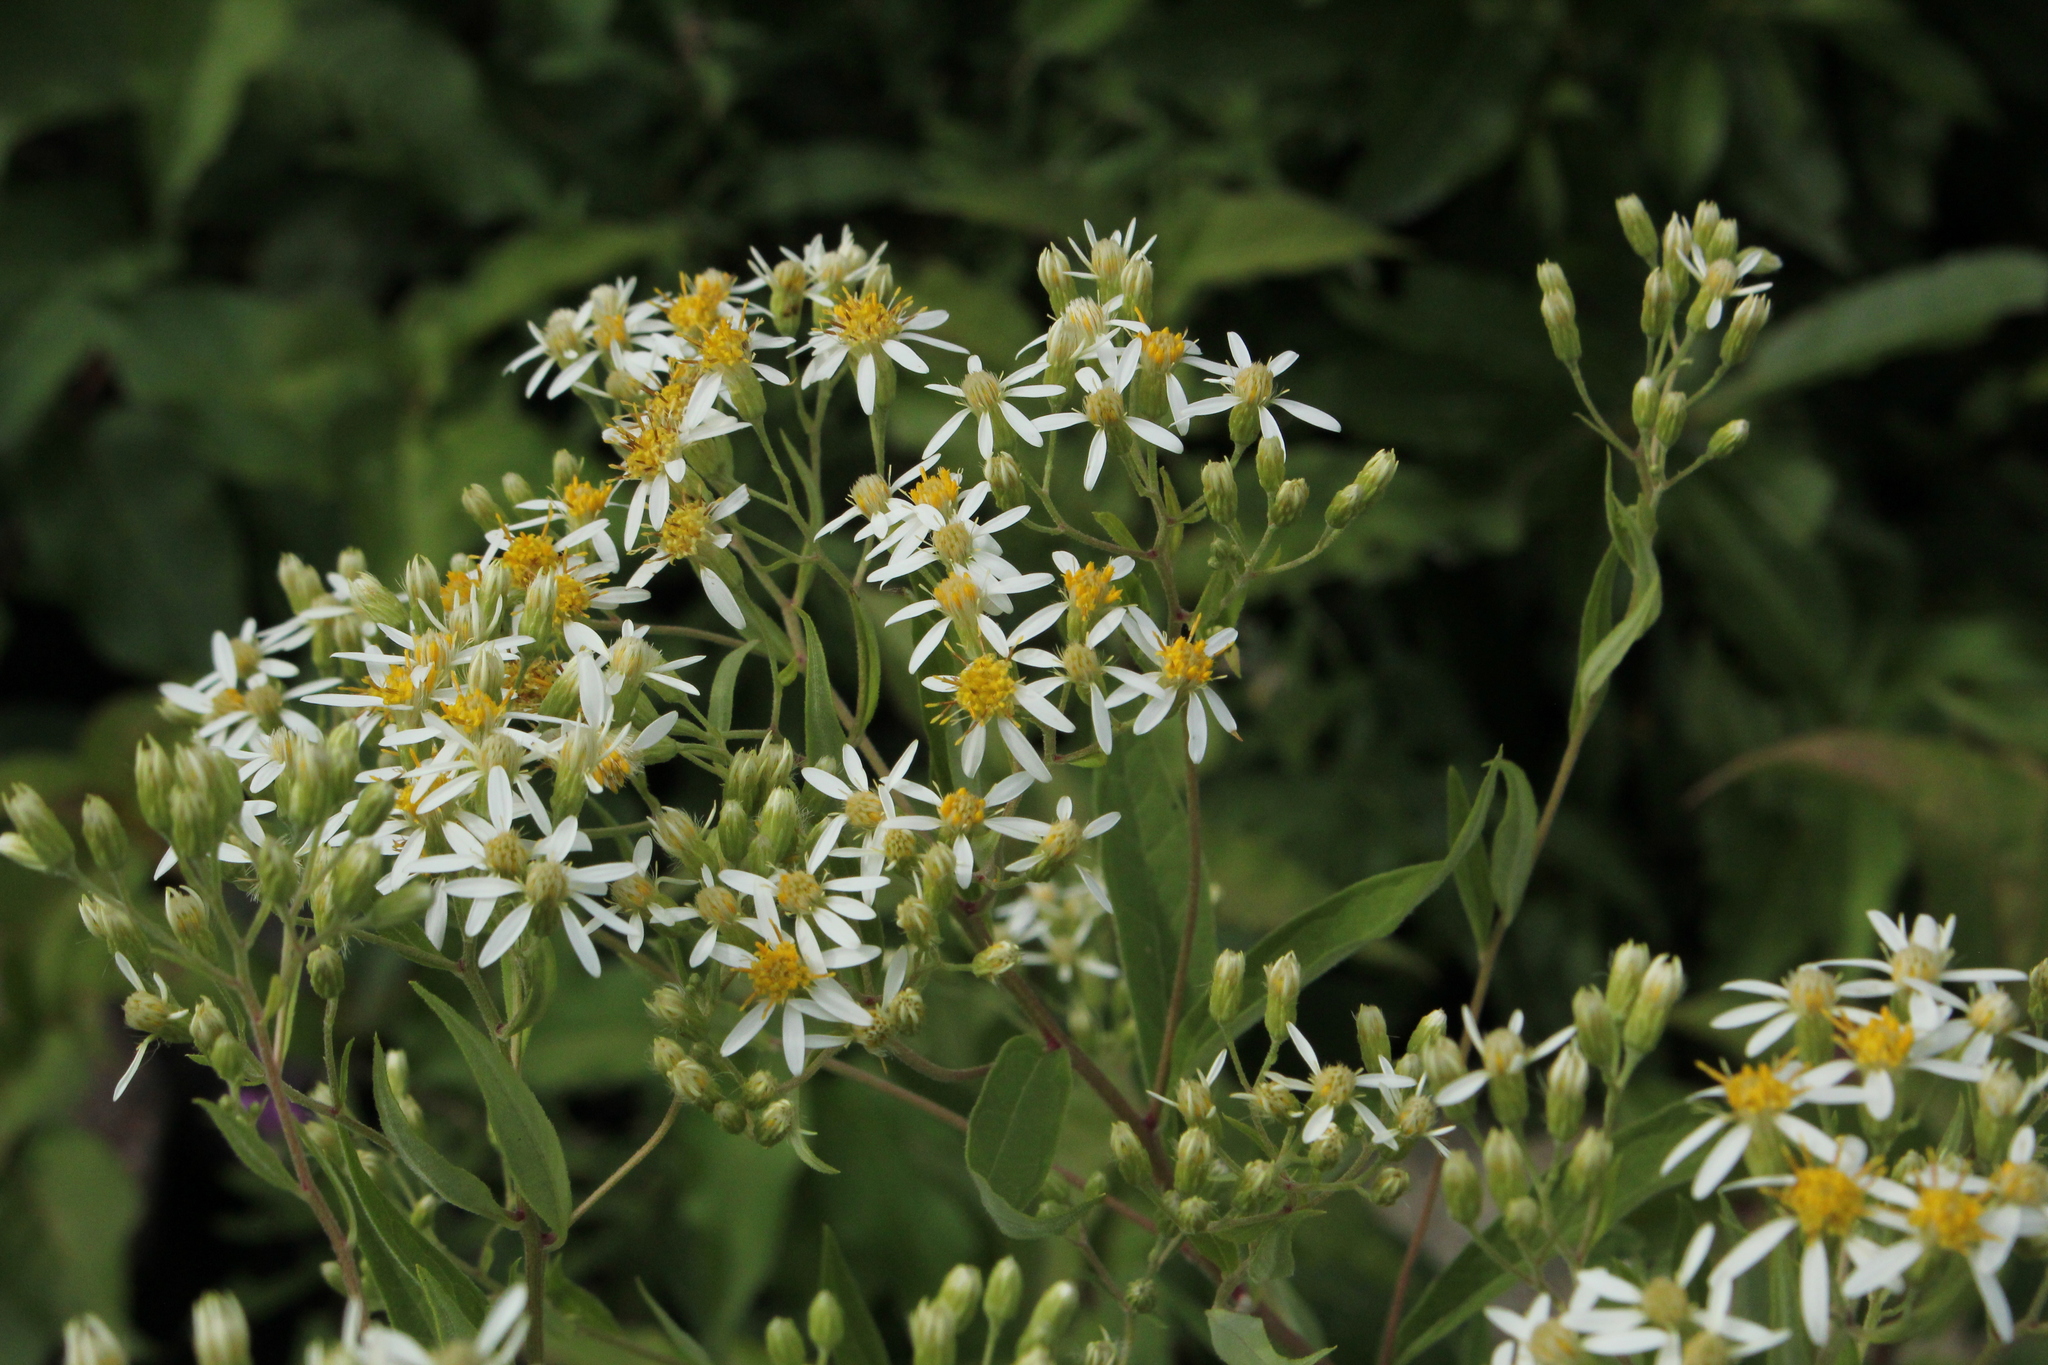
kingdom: Plantae
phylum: Tracheophyta
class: Magnoliopsida
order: Asterales
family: Asteraceae
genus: Doellingeria
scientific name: Doellingeria umbellata
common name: Flat-top white aster
